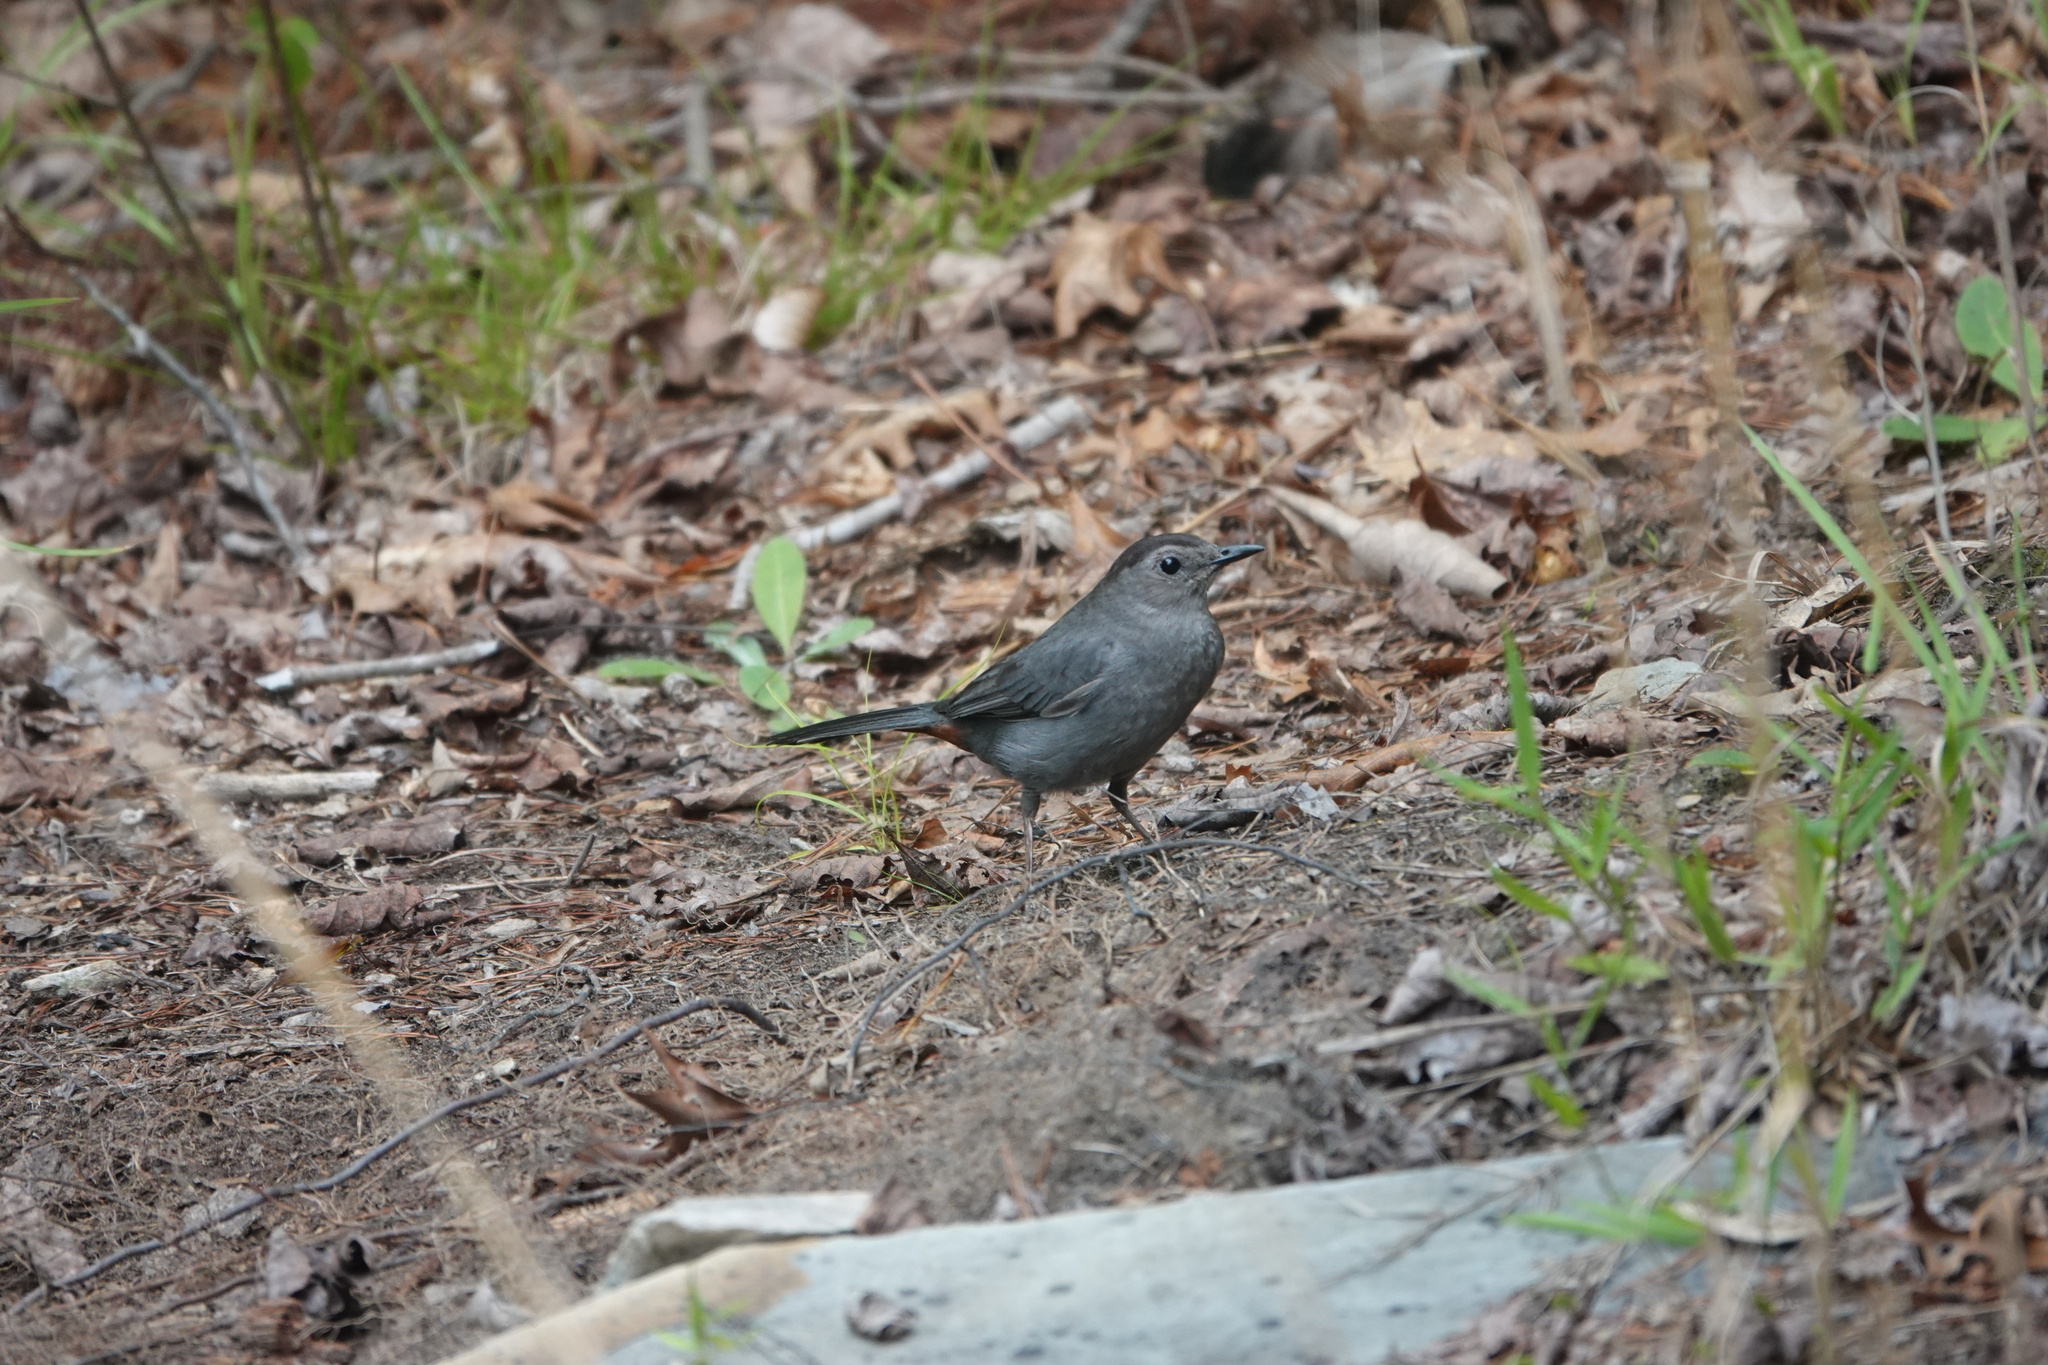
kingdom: Animalia
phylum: Chordata
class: Aves
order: Passeriformes
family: Mimidae
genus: Dumetella
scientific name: Dumetella carolinensis
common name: Gray catbird
